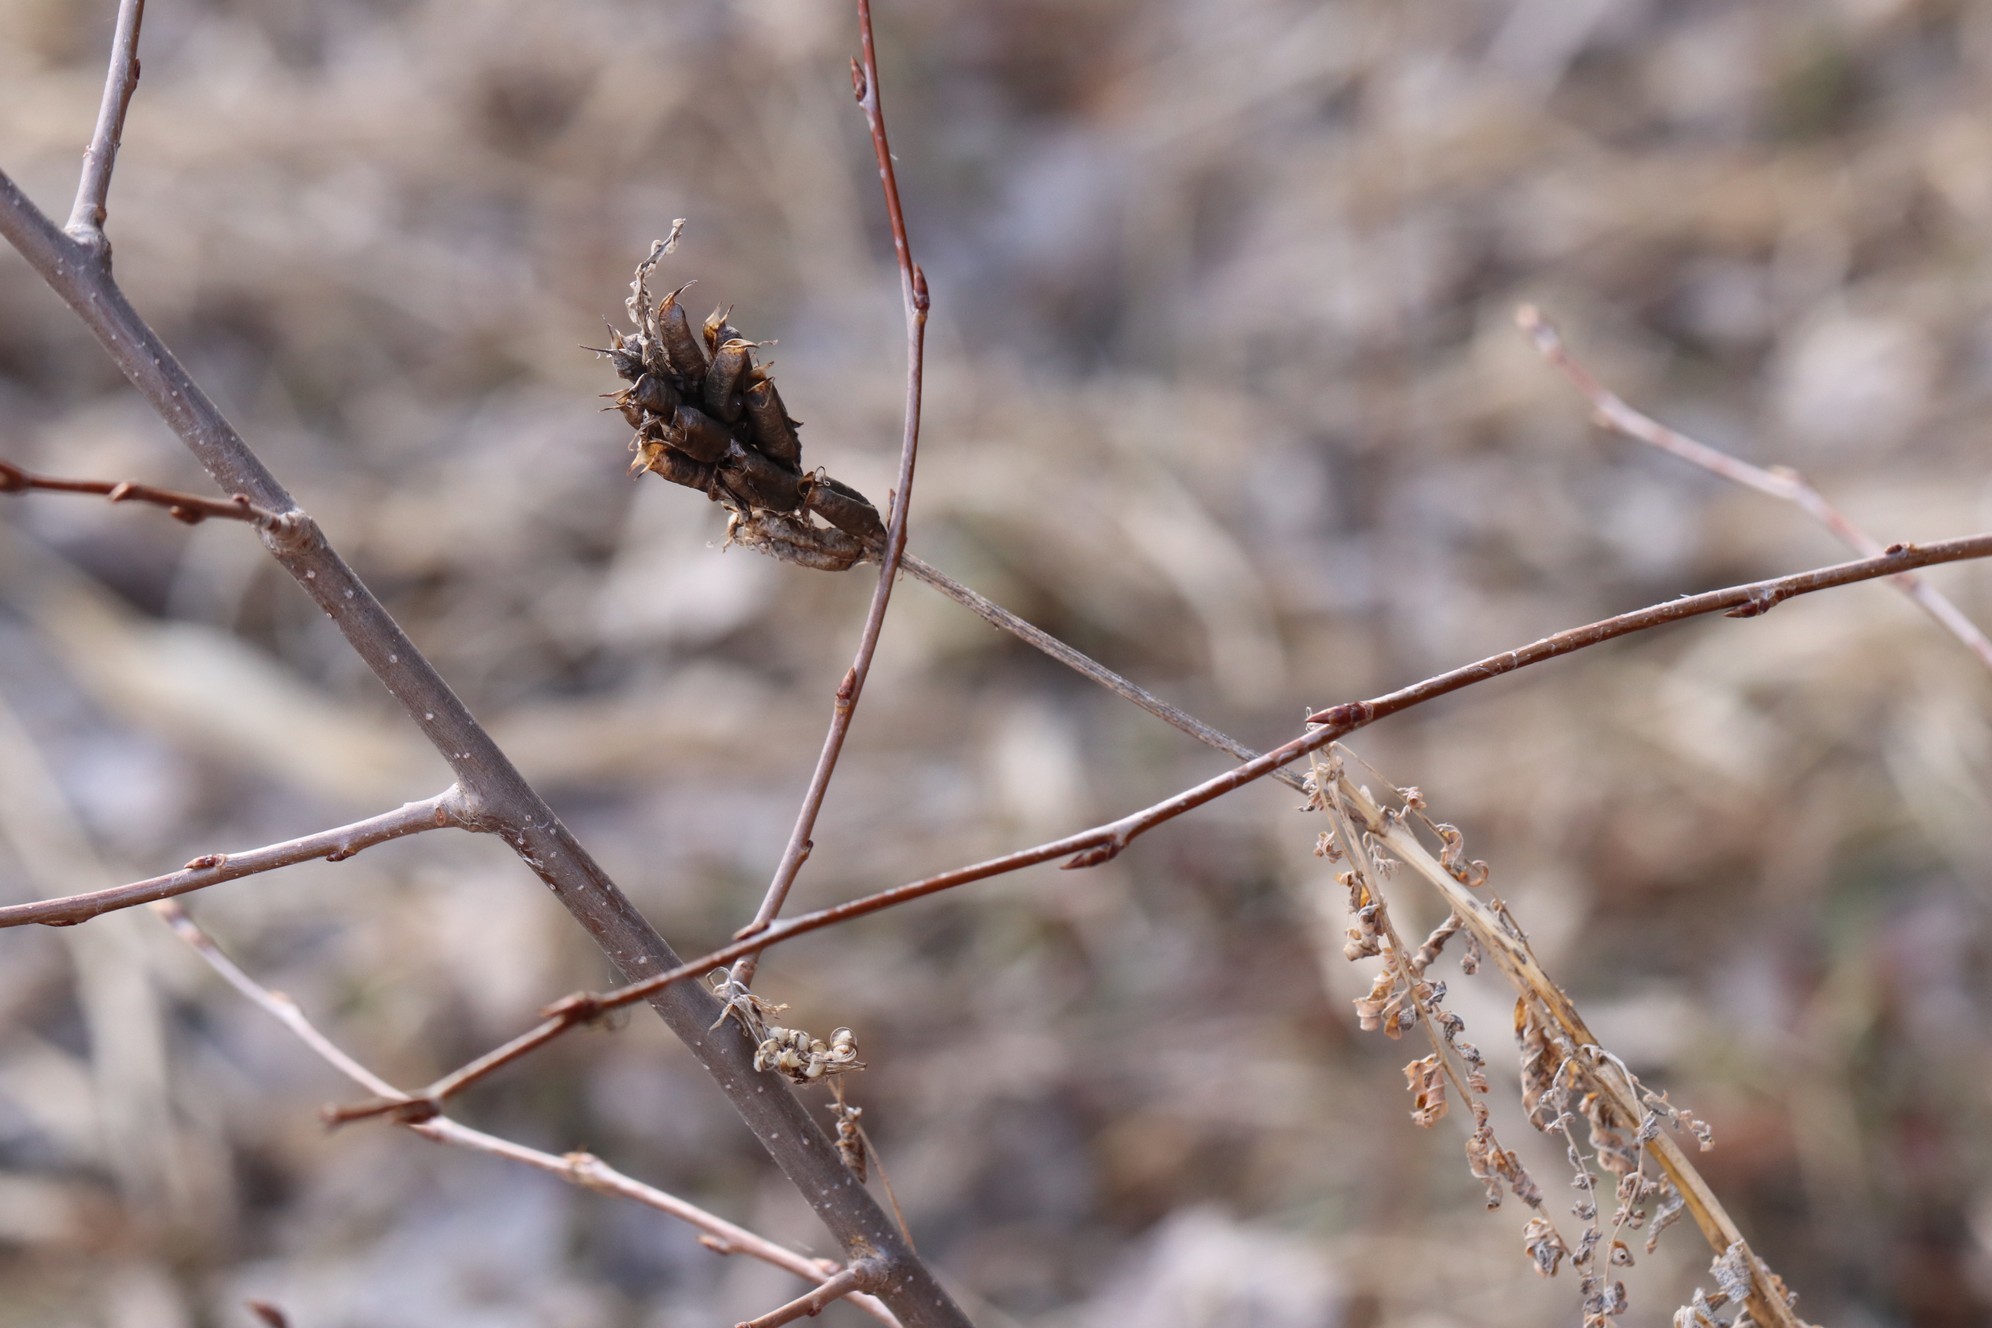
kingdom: Plantae
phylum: Tracheophyta
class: Magnoliopsida
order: Fabales
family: Fabaceae
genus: Astragalus
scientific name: Astragalus uliginosus
